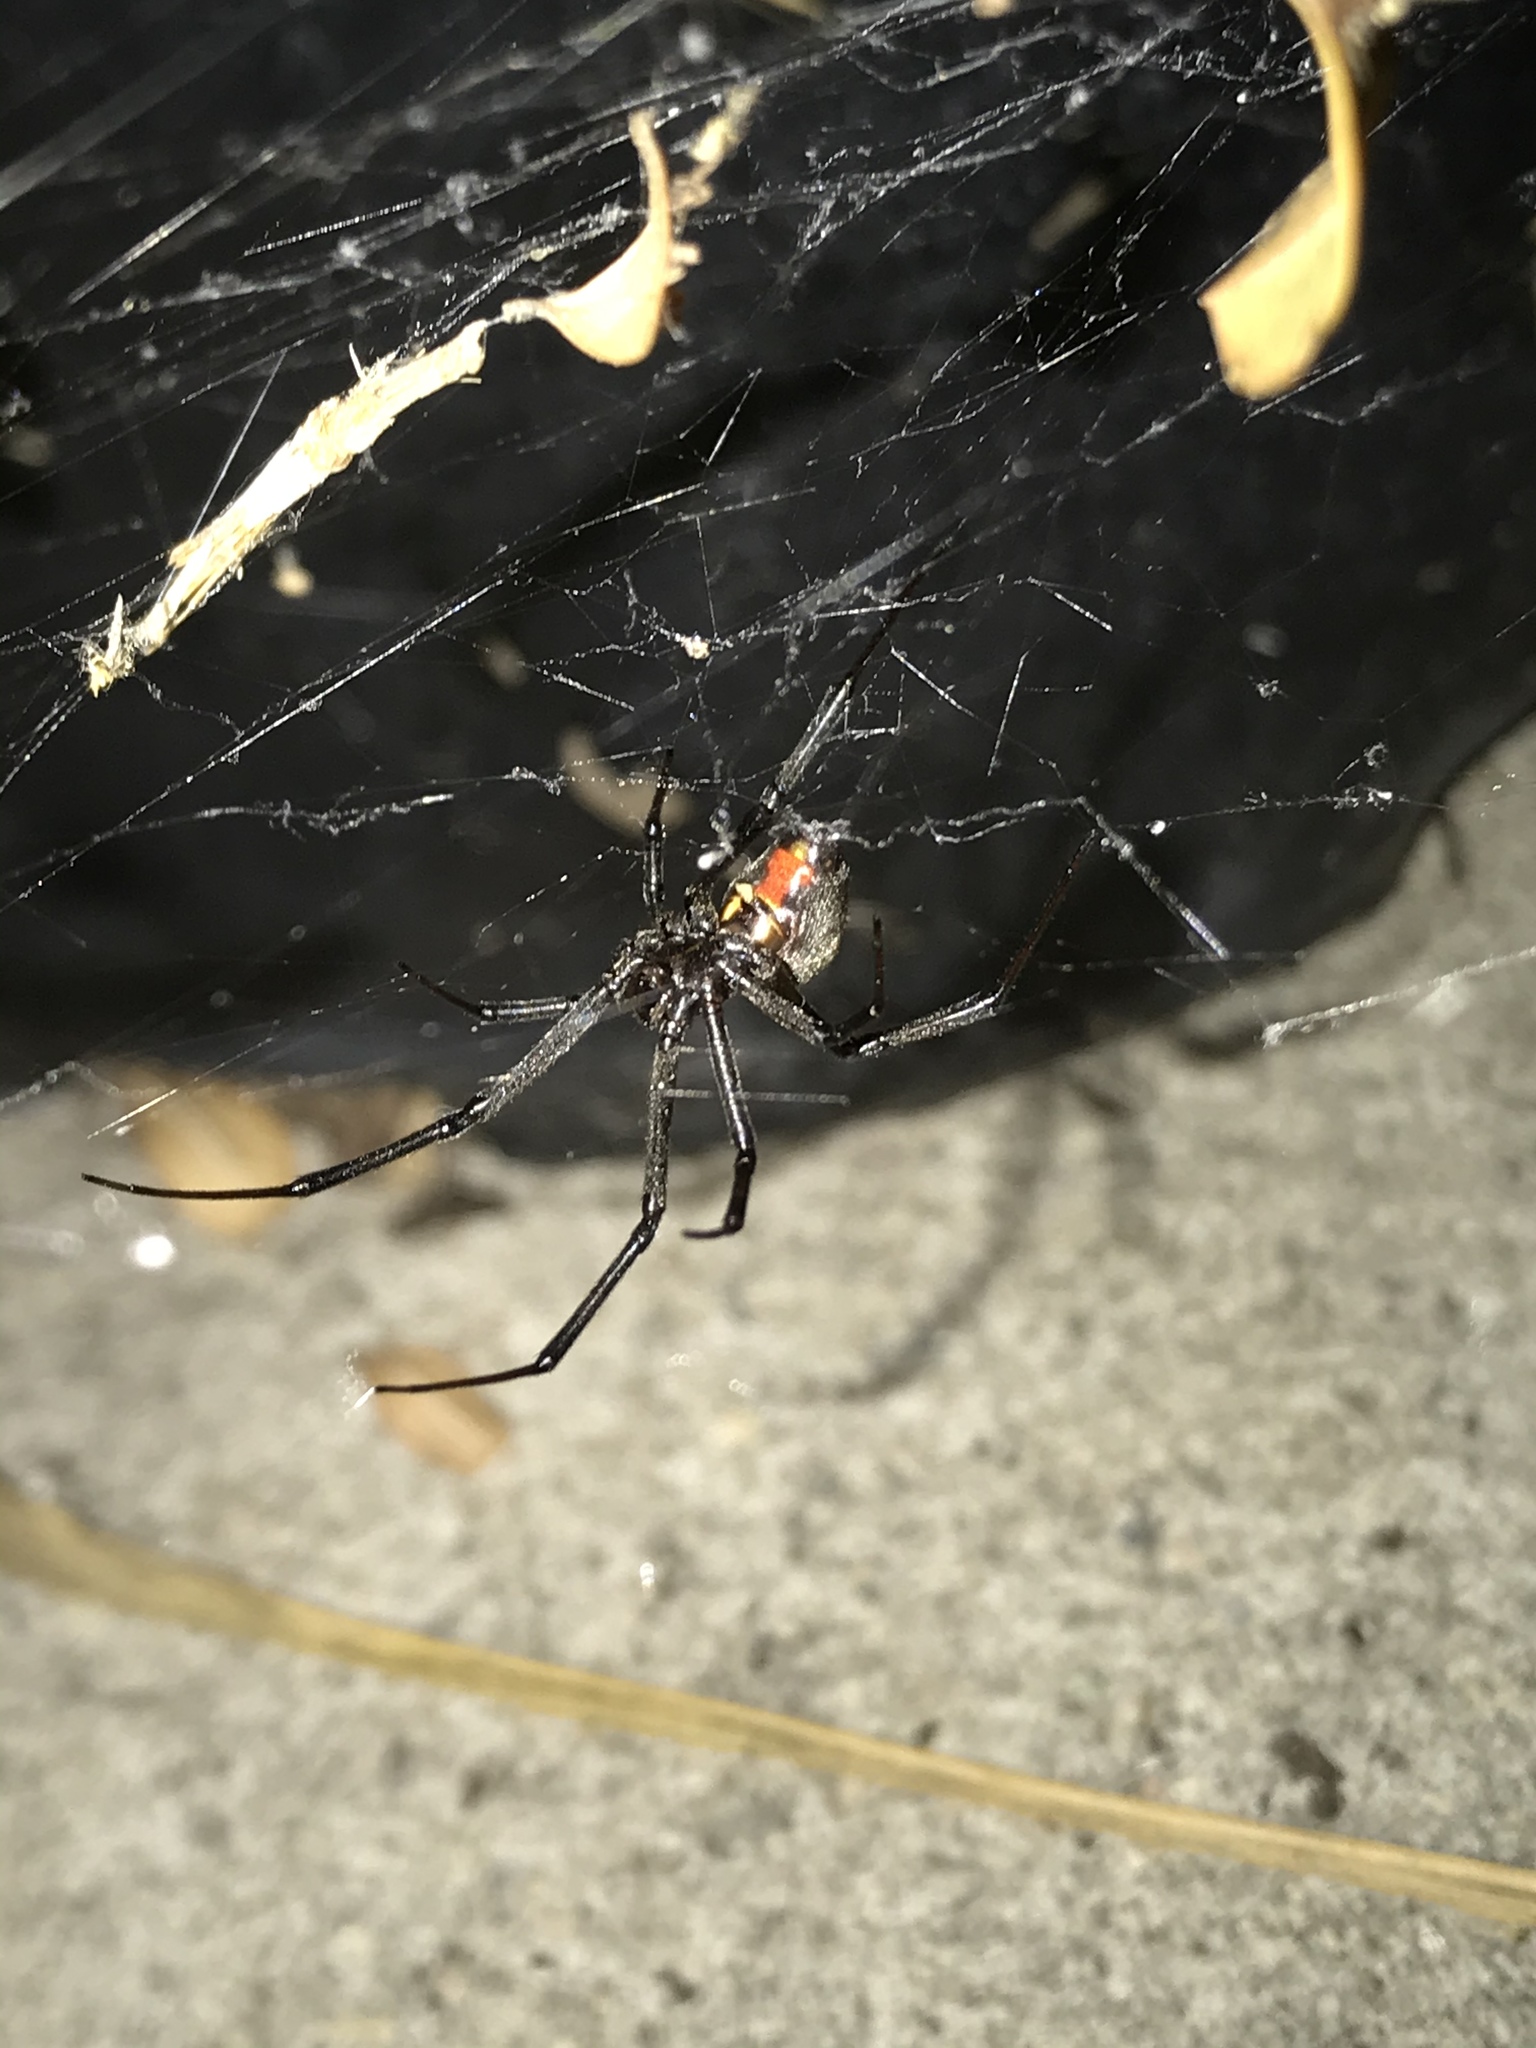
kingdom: Animalia
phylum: Arthropoda
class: Arachnida
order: Araneae
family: Theridiidae
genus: Latrodectus
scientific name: Latrodectus geometricus
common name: Brown widow spider
